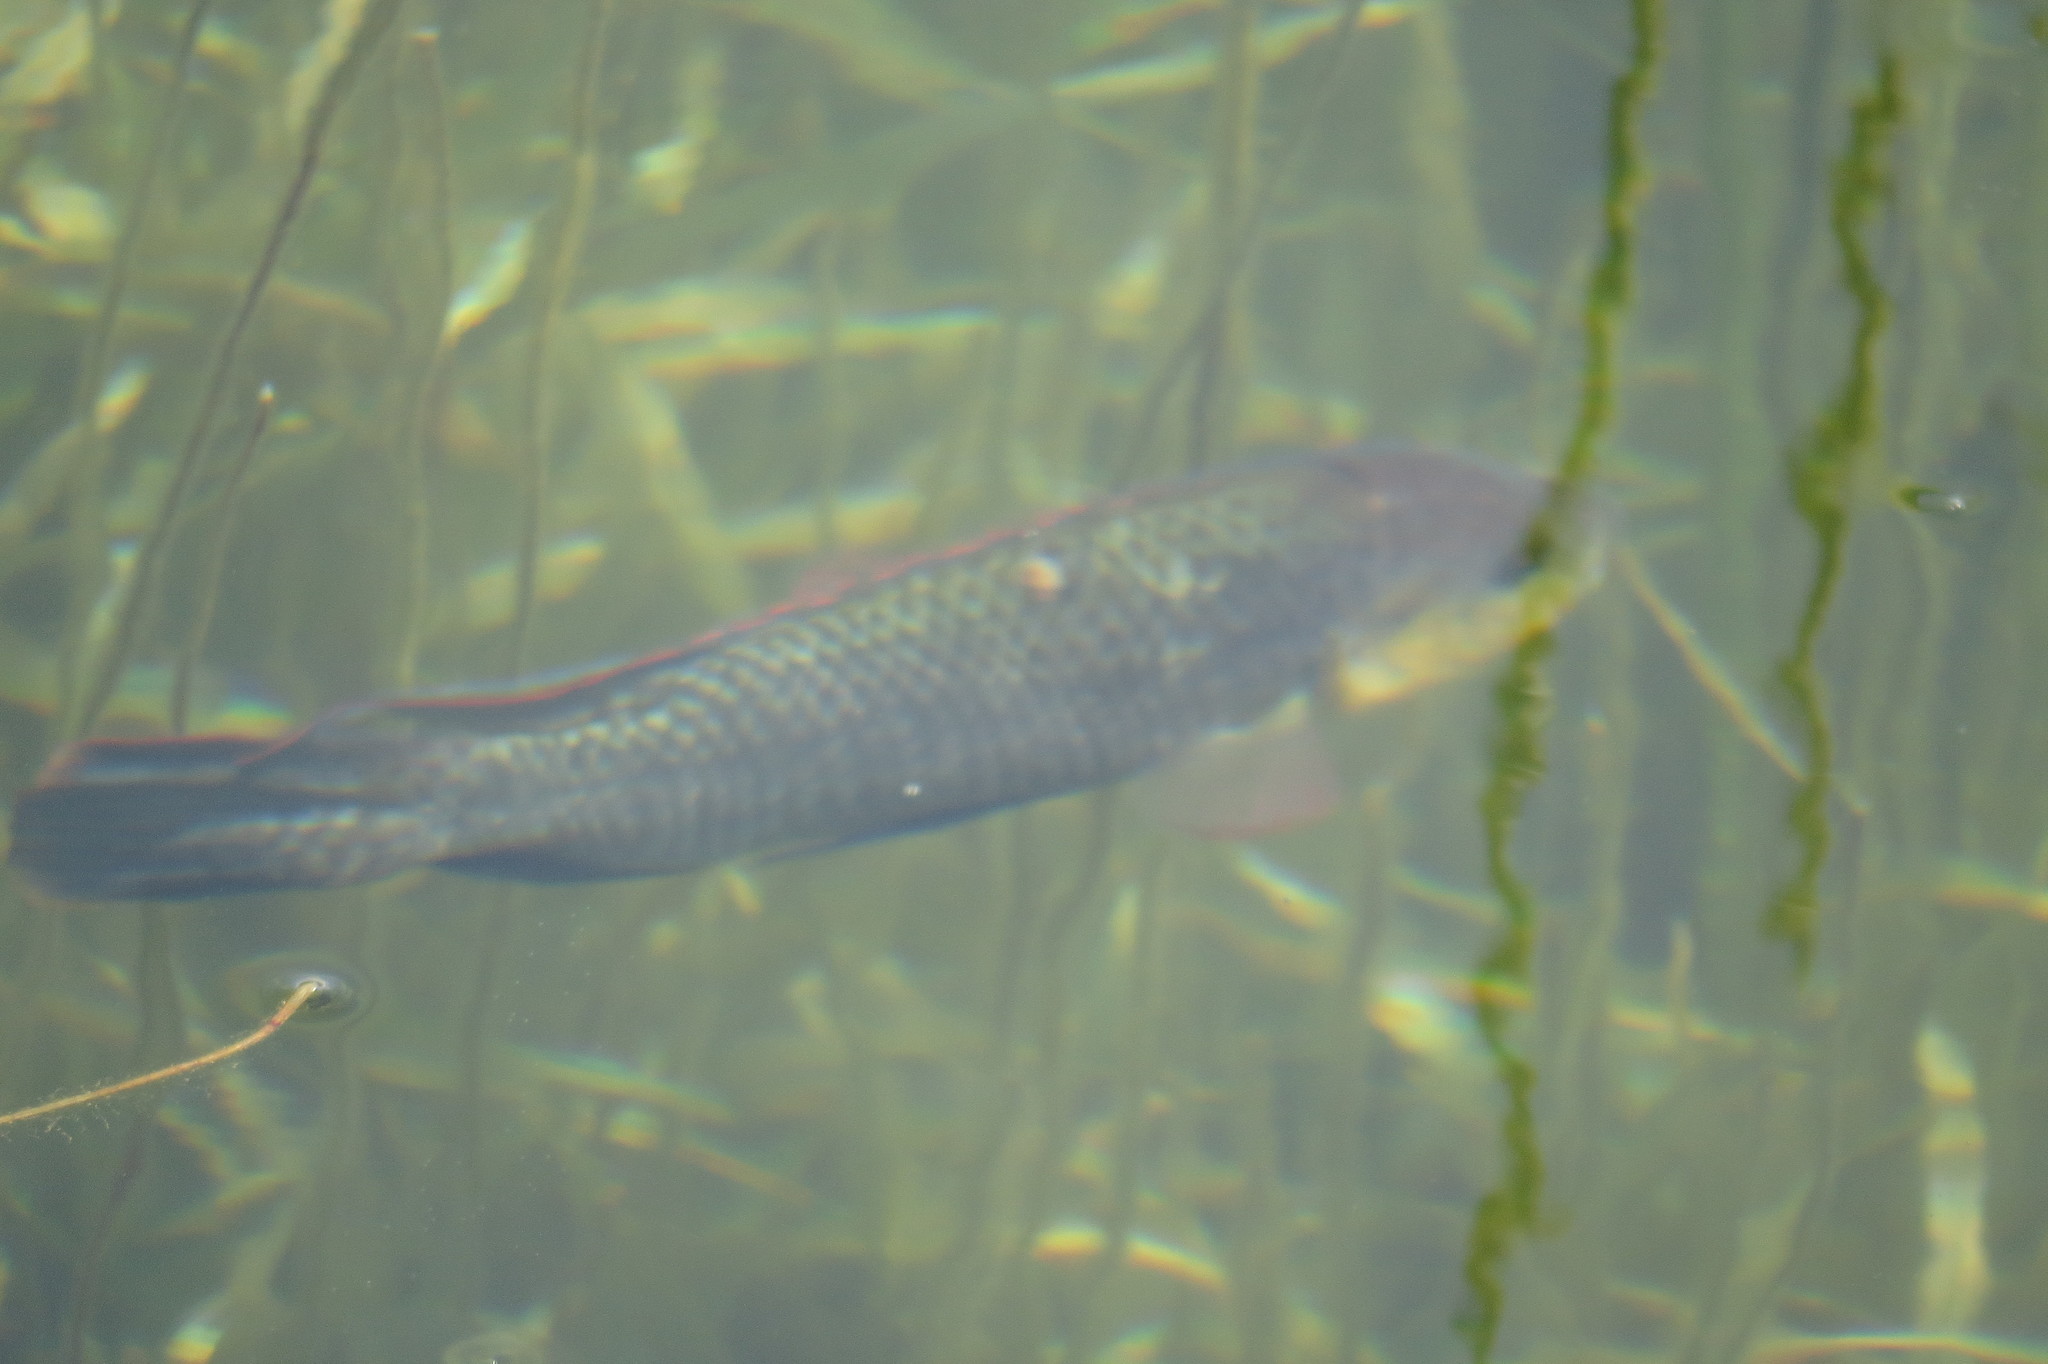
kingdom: Animalia
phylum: Chordata
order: Perciformes
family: Cichlidae
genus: Oreochromis
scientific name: Oreochromis mossambicus
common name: Mozambique tilapia
